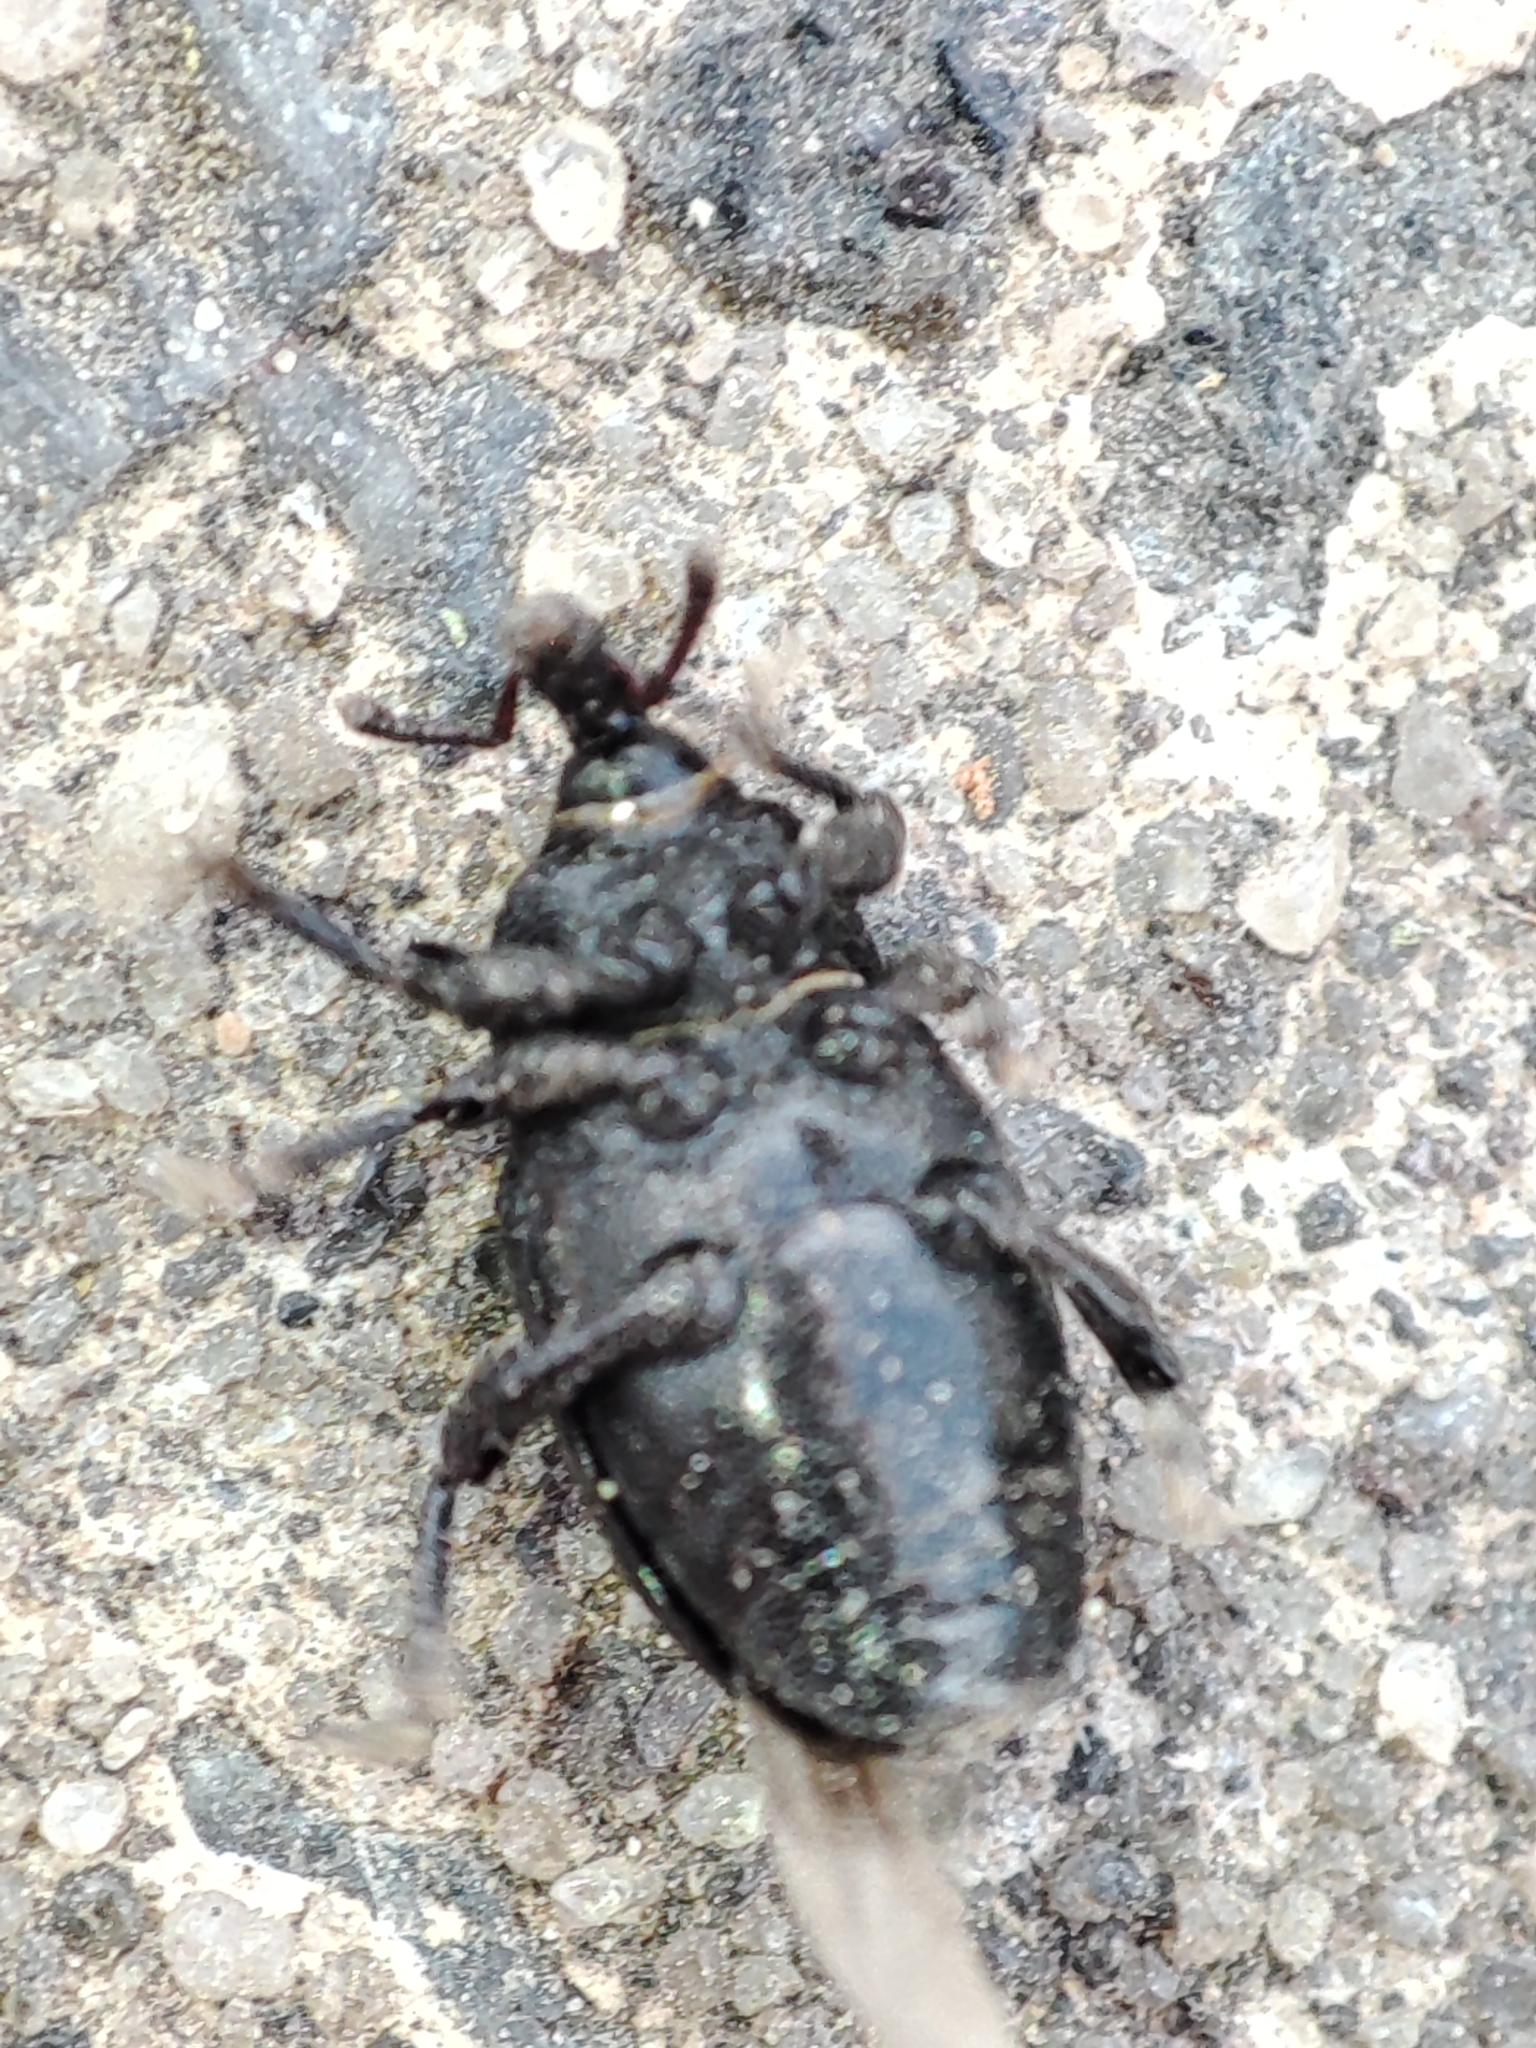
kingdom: Animalia
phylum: Arthropoda
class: Insecta
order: Coleoptera
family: Curculionidae
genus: Malvaevora
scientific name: Malvaevora timida
